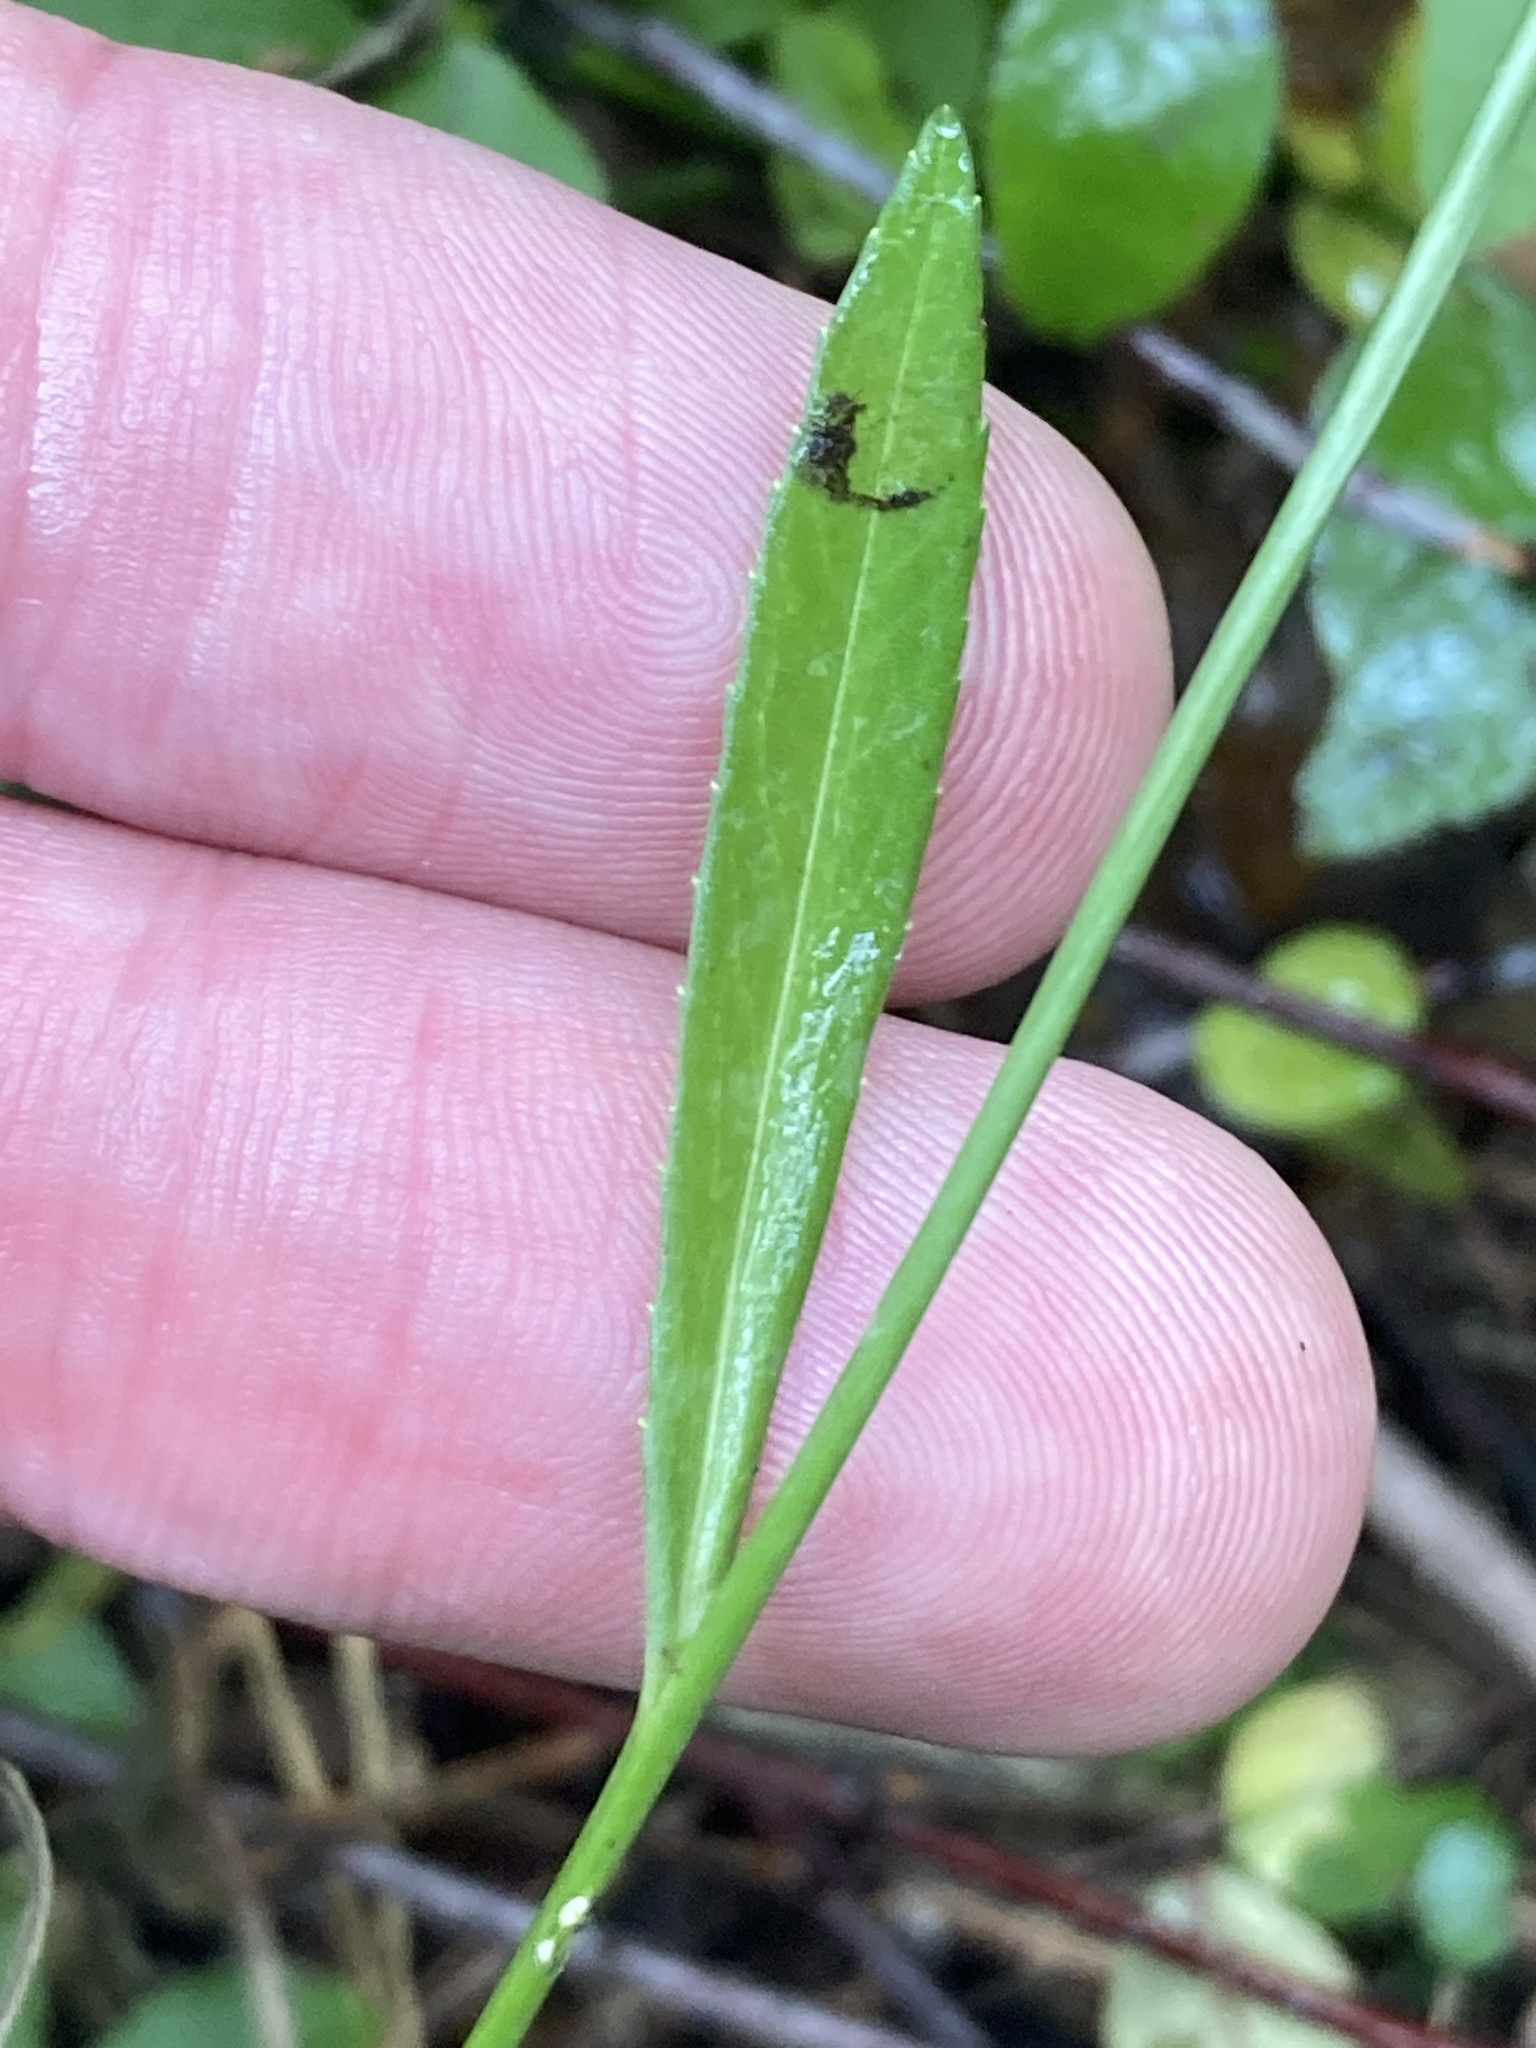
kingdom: Plantae
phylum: Tracheophyta
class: Magnoliopsida
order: Asterales
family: Campanulaceae
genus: Campanula
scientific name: Campanula persicifolia
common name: Peach-leaved bellflower
